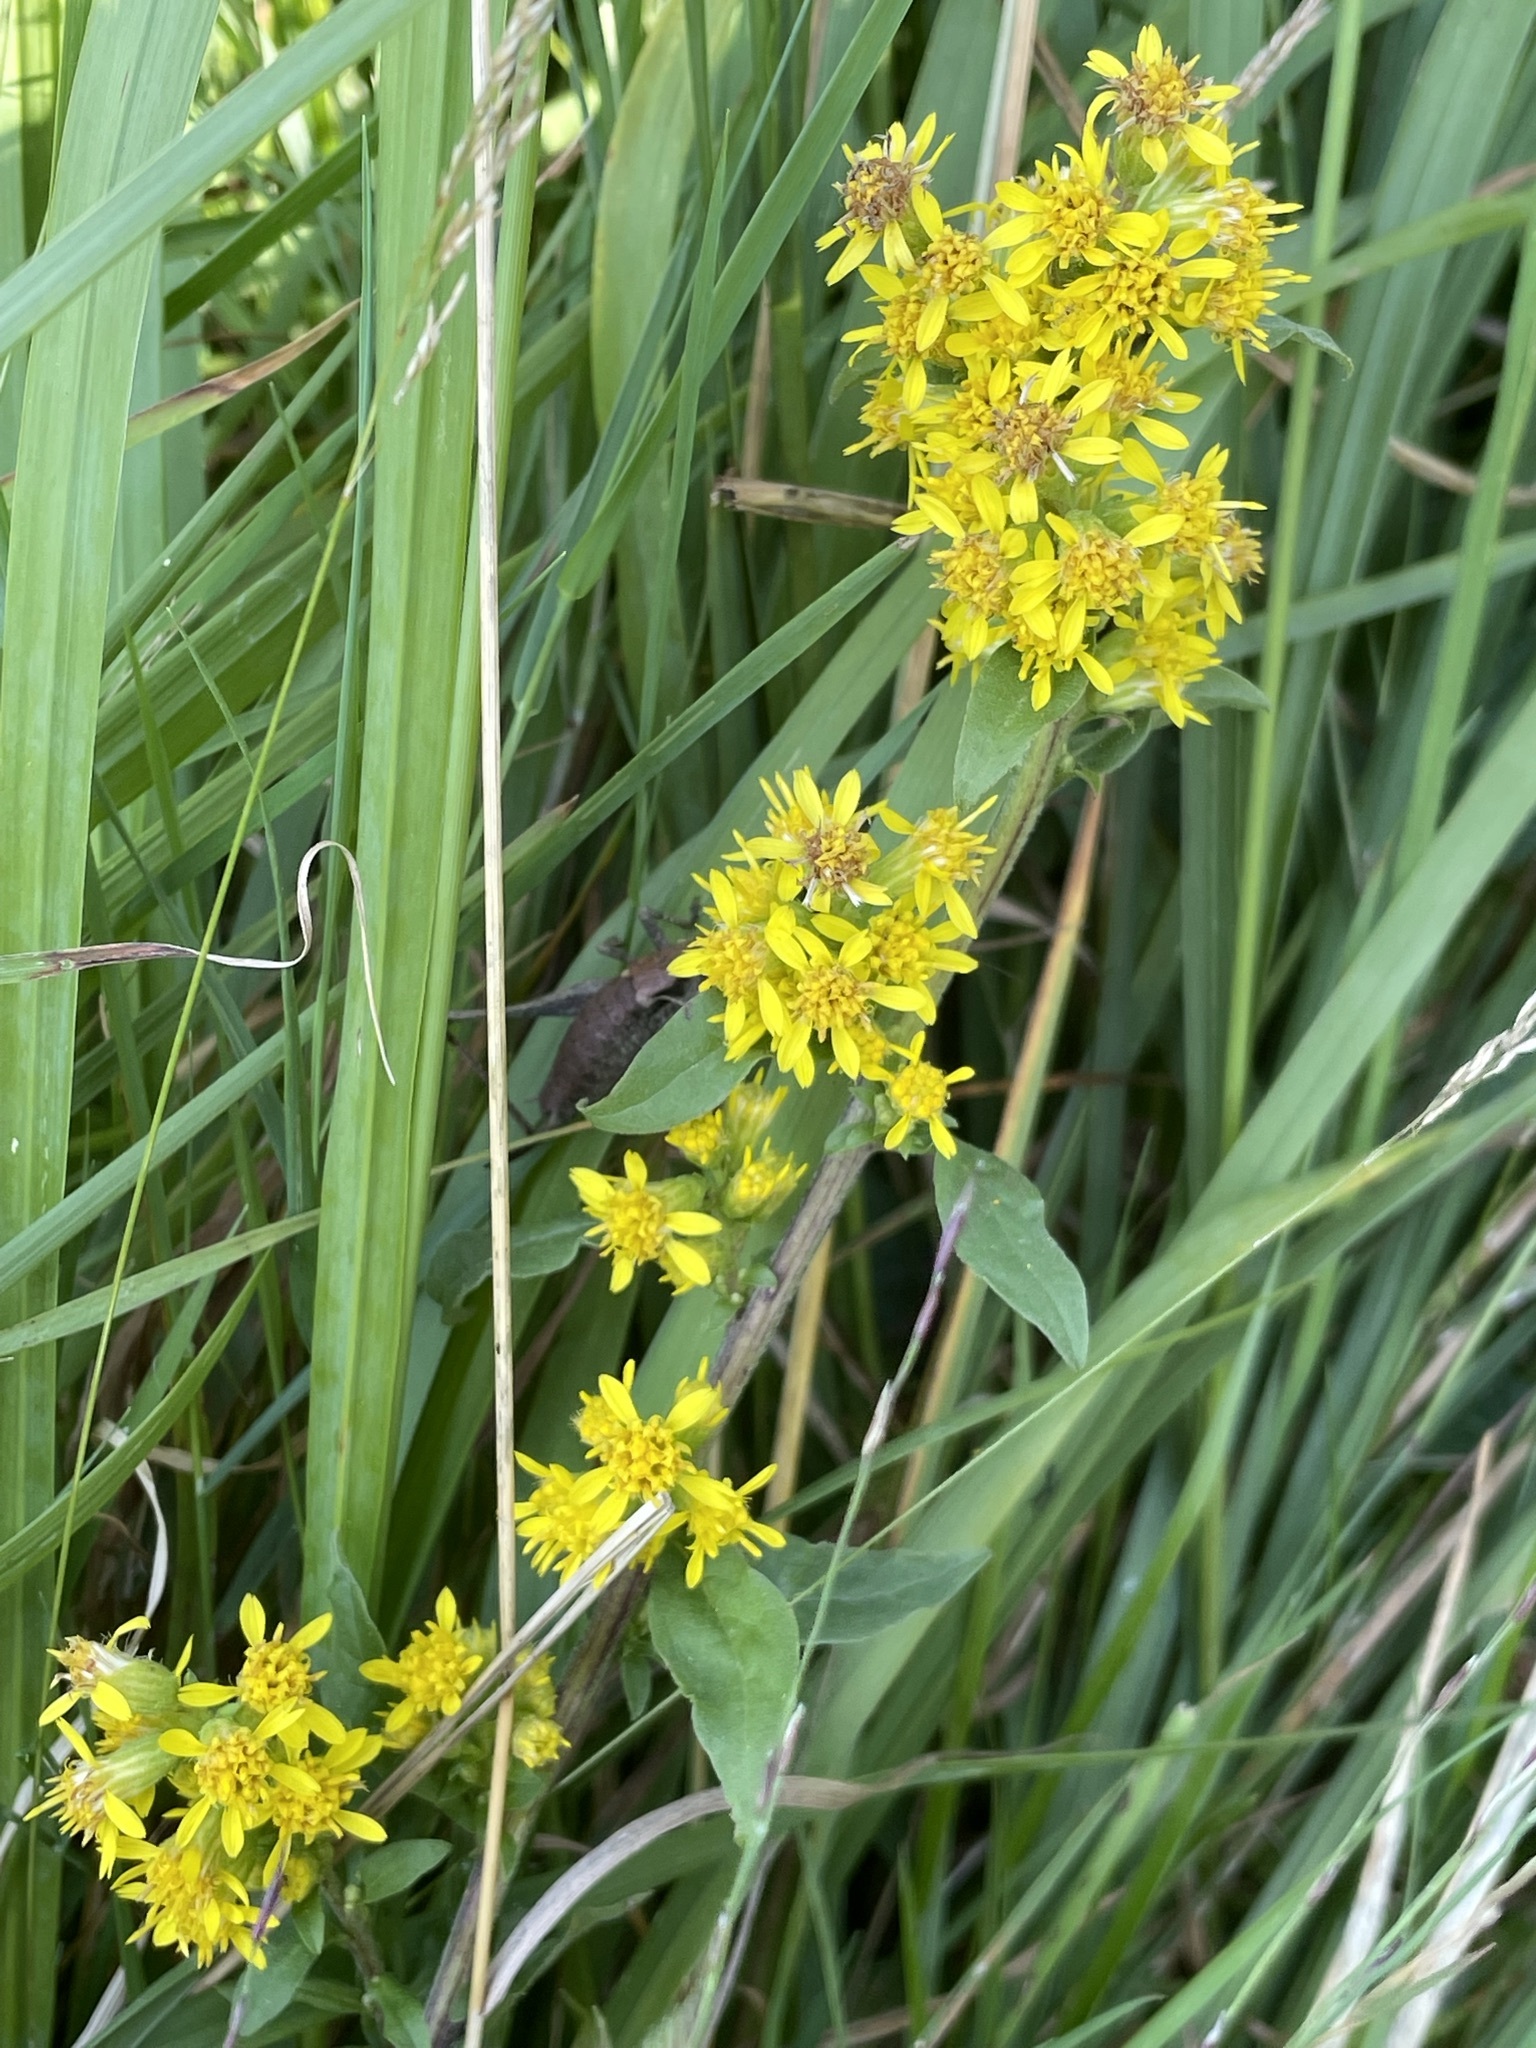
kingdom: Plantae
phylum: Tracheophyta
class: Magnoliopsida
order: Asterales
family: Asteraceae
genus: Solidago
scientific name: Solidago virgaurea
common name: Goldenrod
